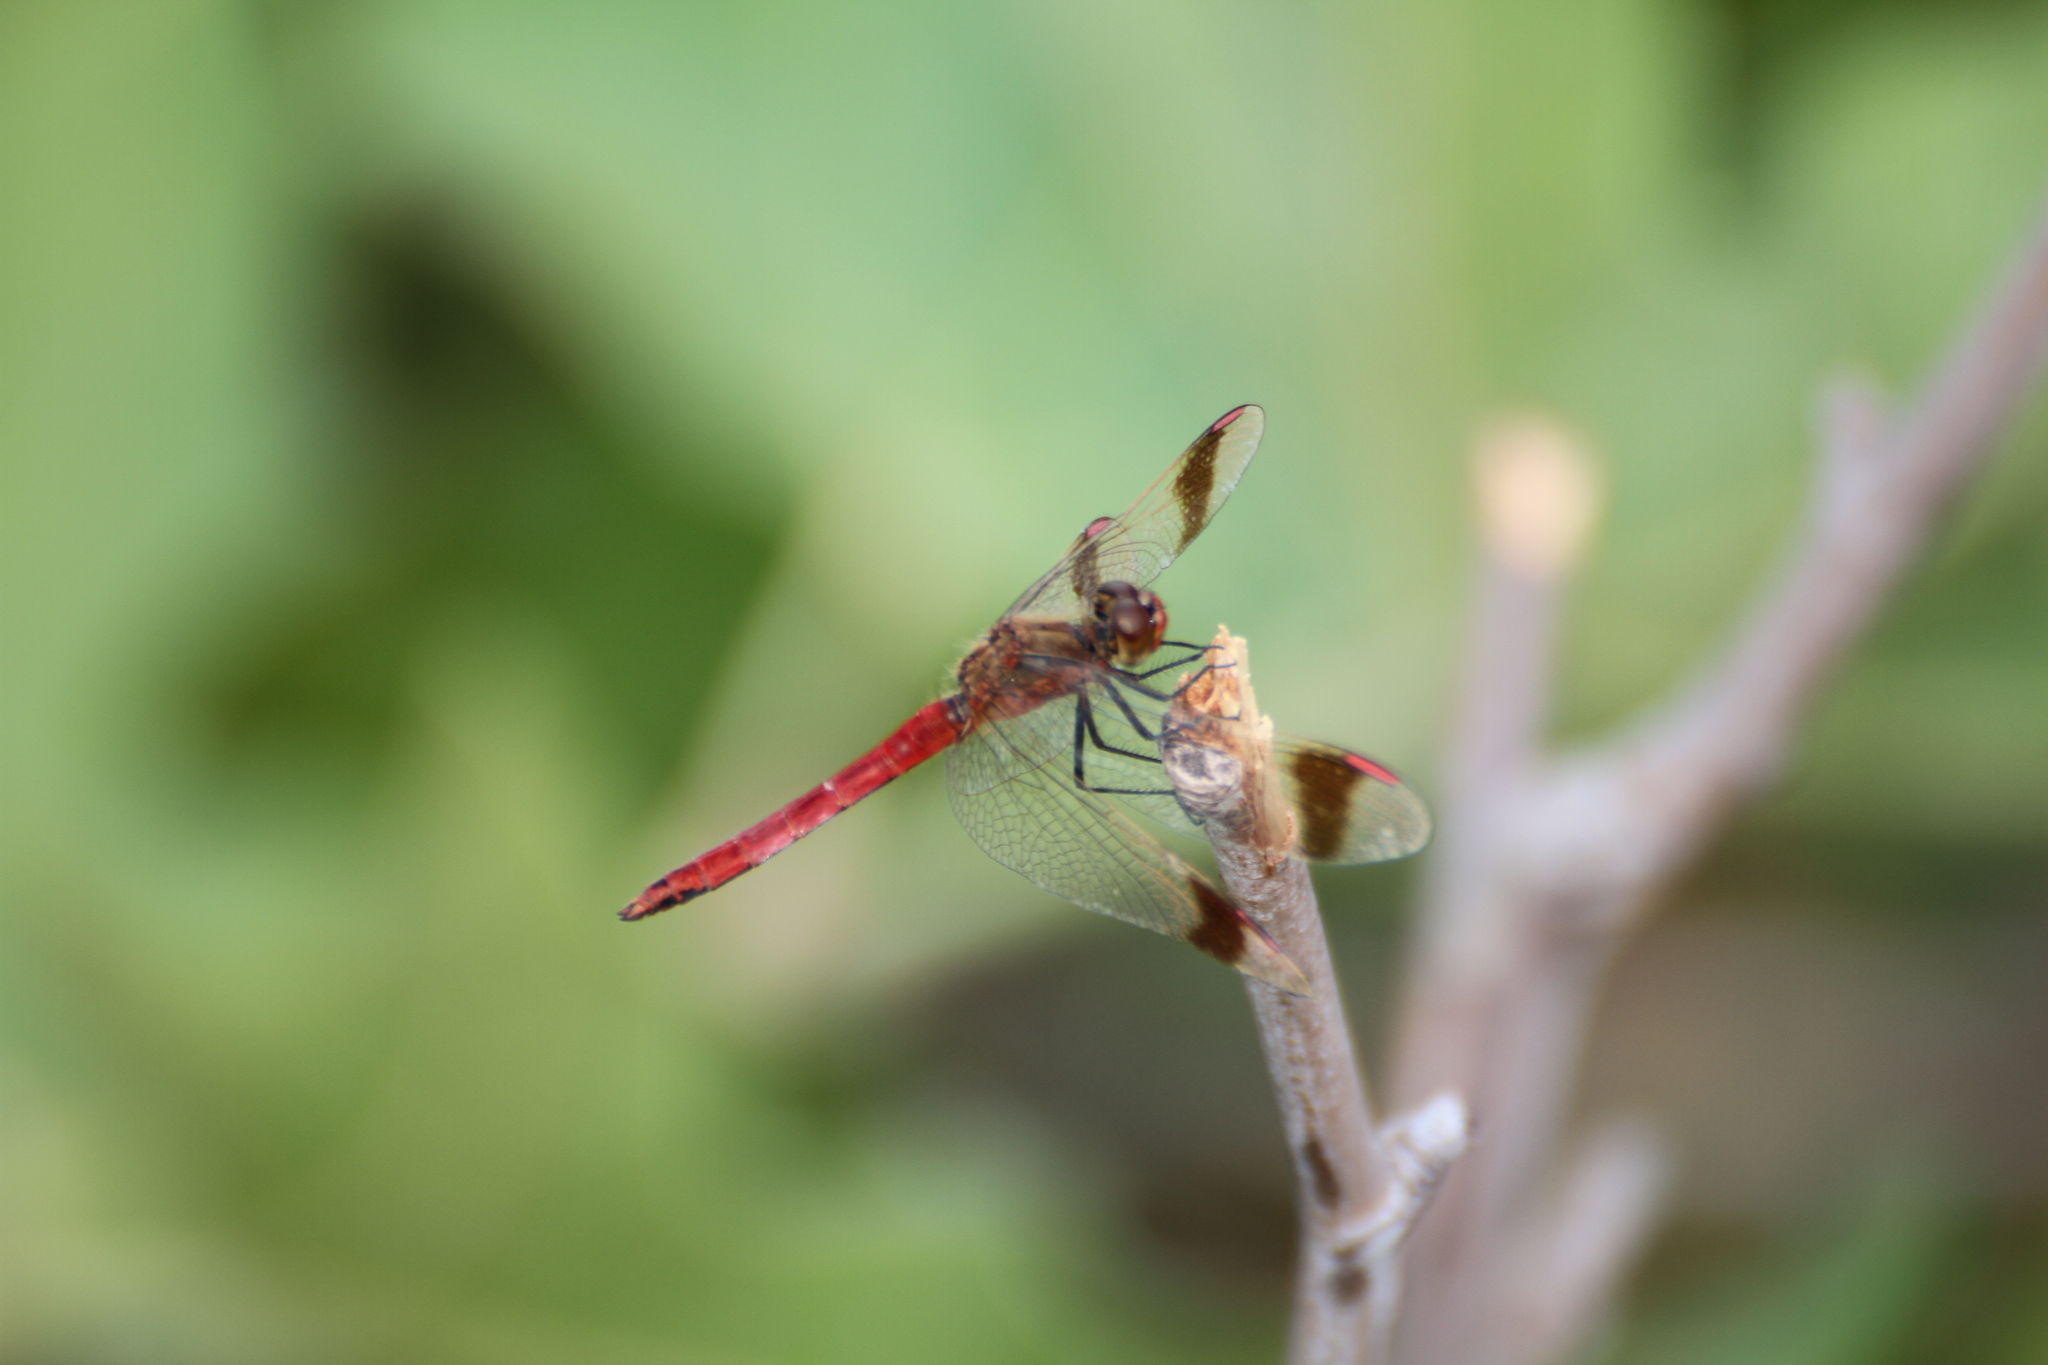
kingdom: Animalia
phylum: Arthropoda
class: Insecta
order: Odonata
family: Libellulidae
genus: Sympetrum
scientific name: Sympetrum pedemontanum
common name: Banded darter
